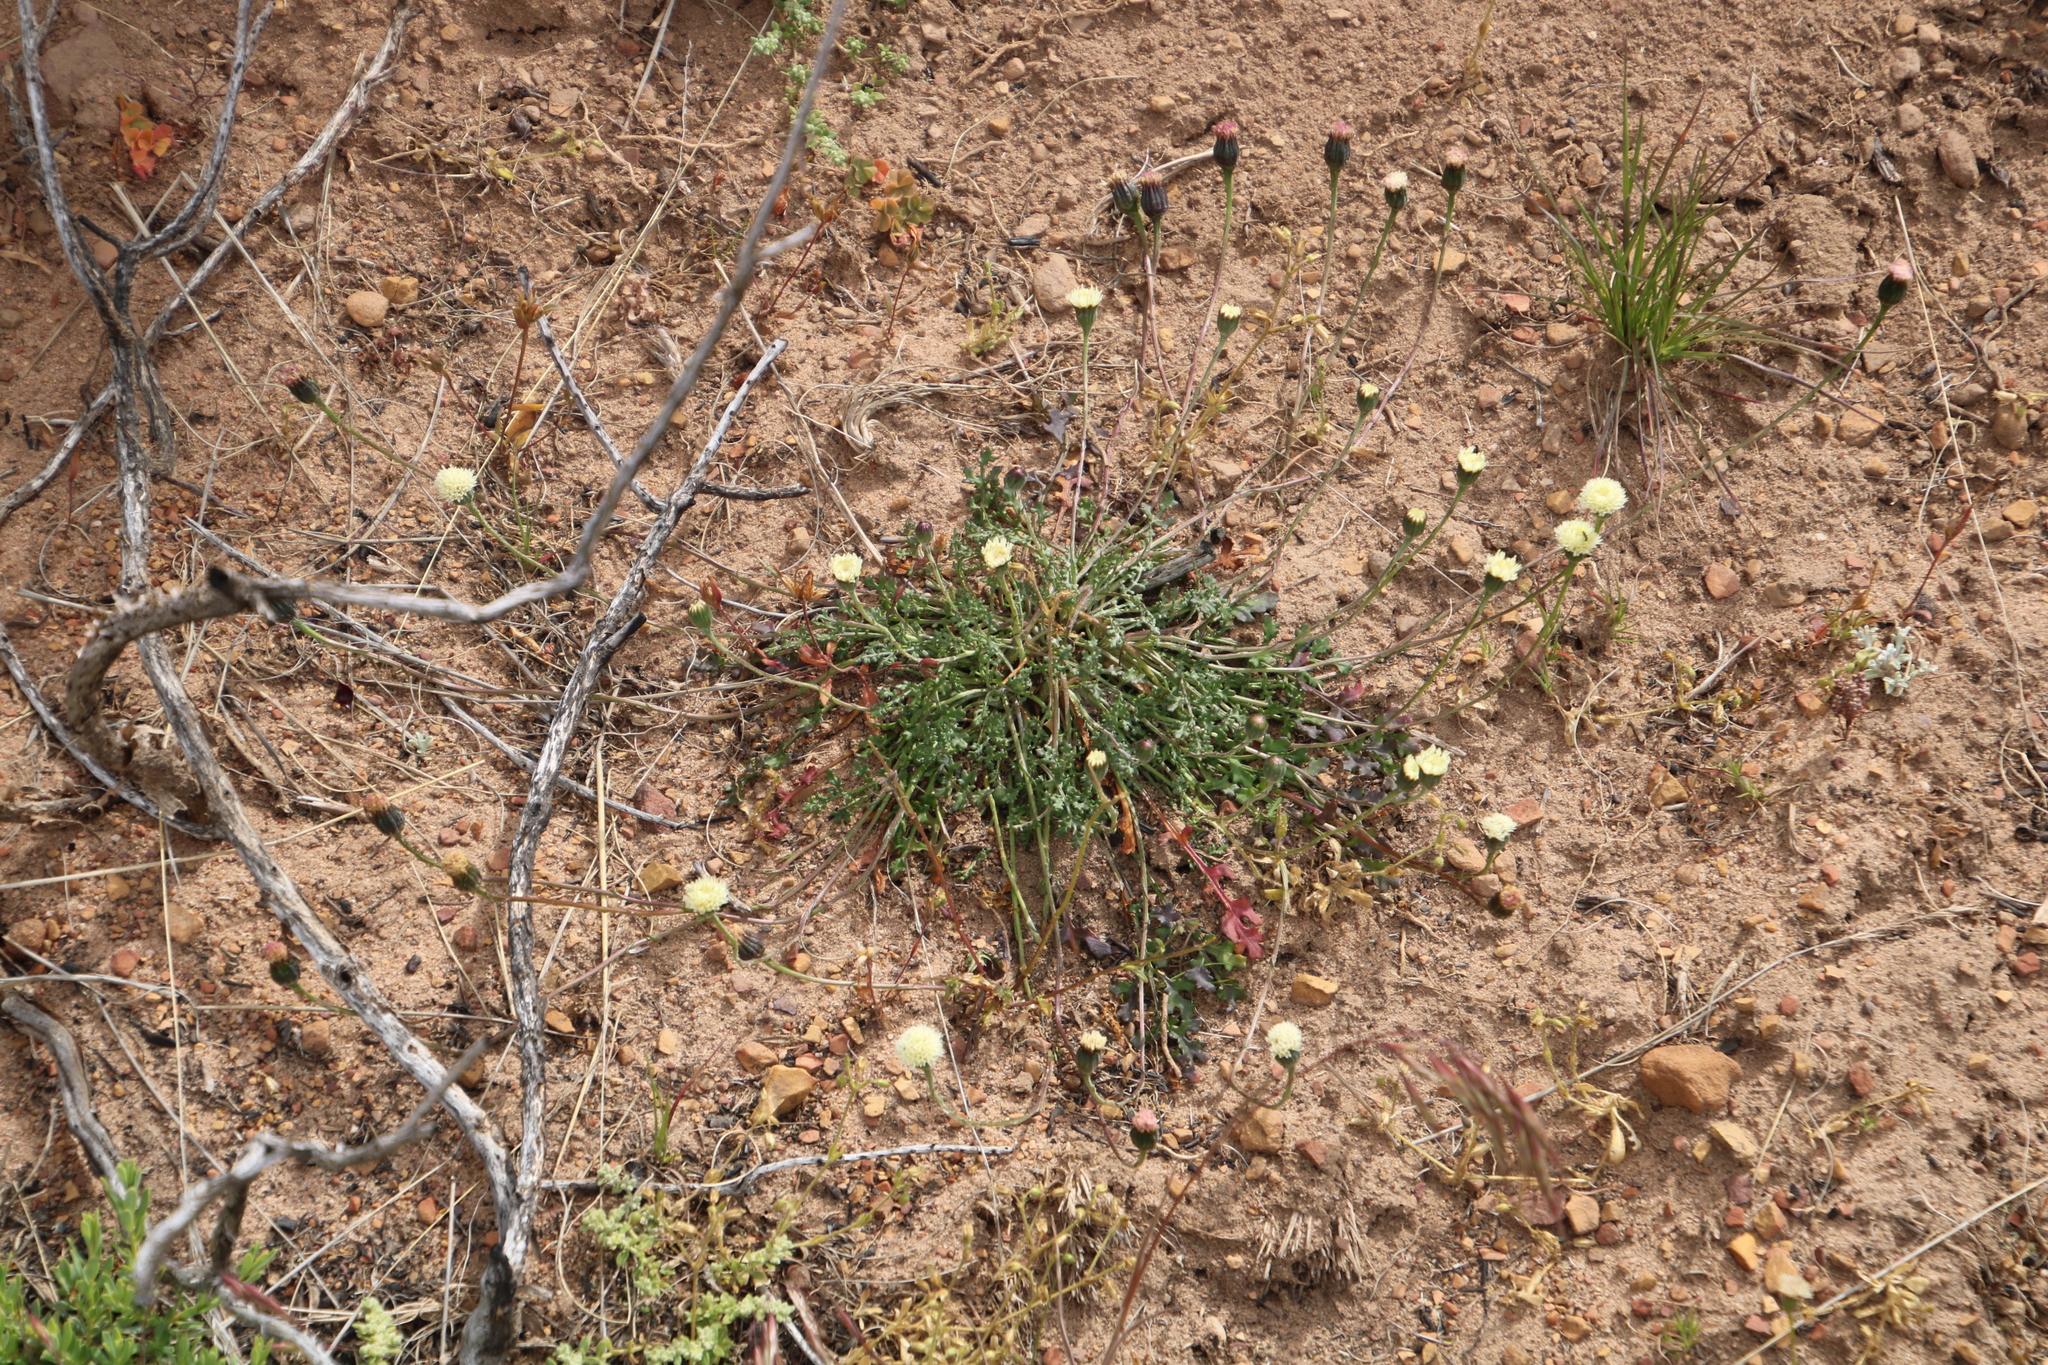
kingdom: Plantae
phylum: Tracheophyta
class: Magnoliopsida
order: Asterales
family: Asteraceae
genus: Bolandia
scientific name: Bolandia pinnatifida
